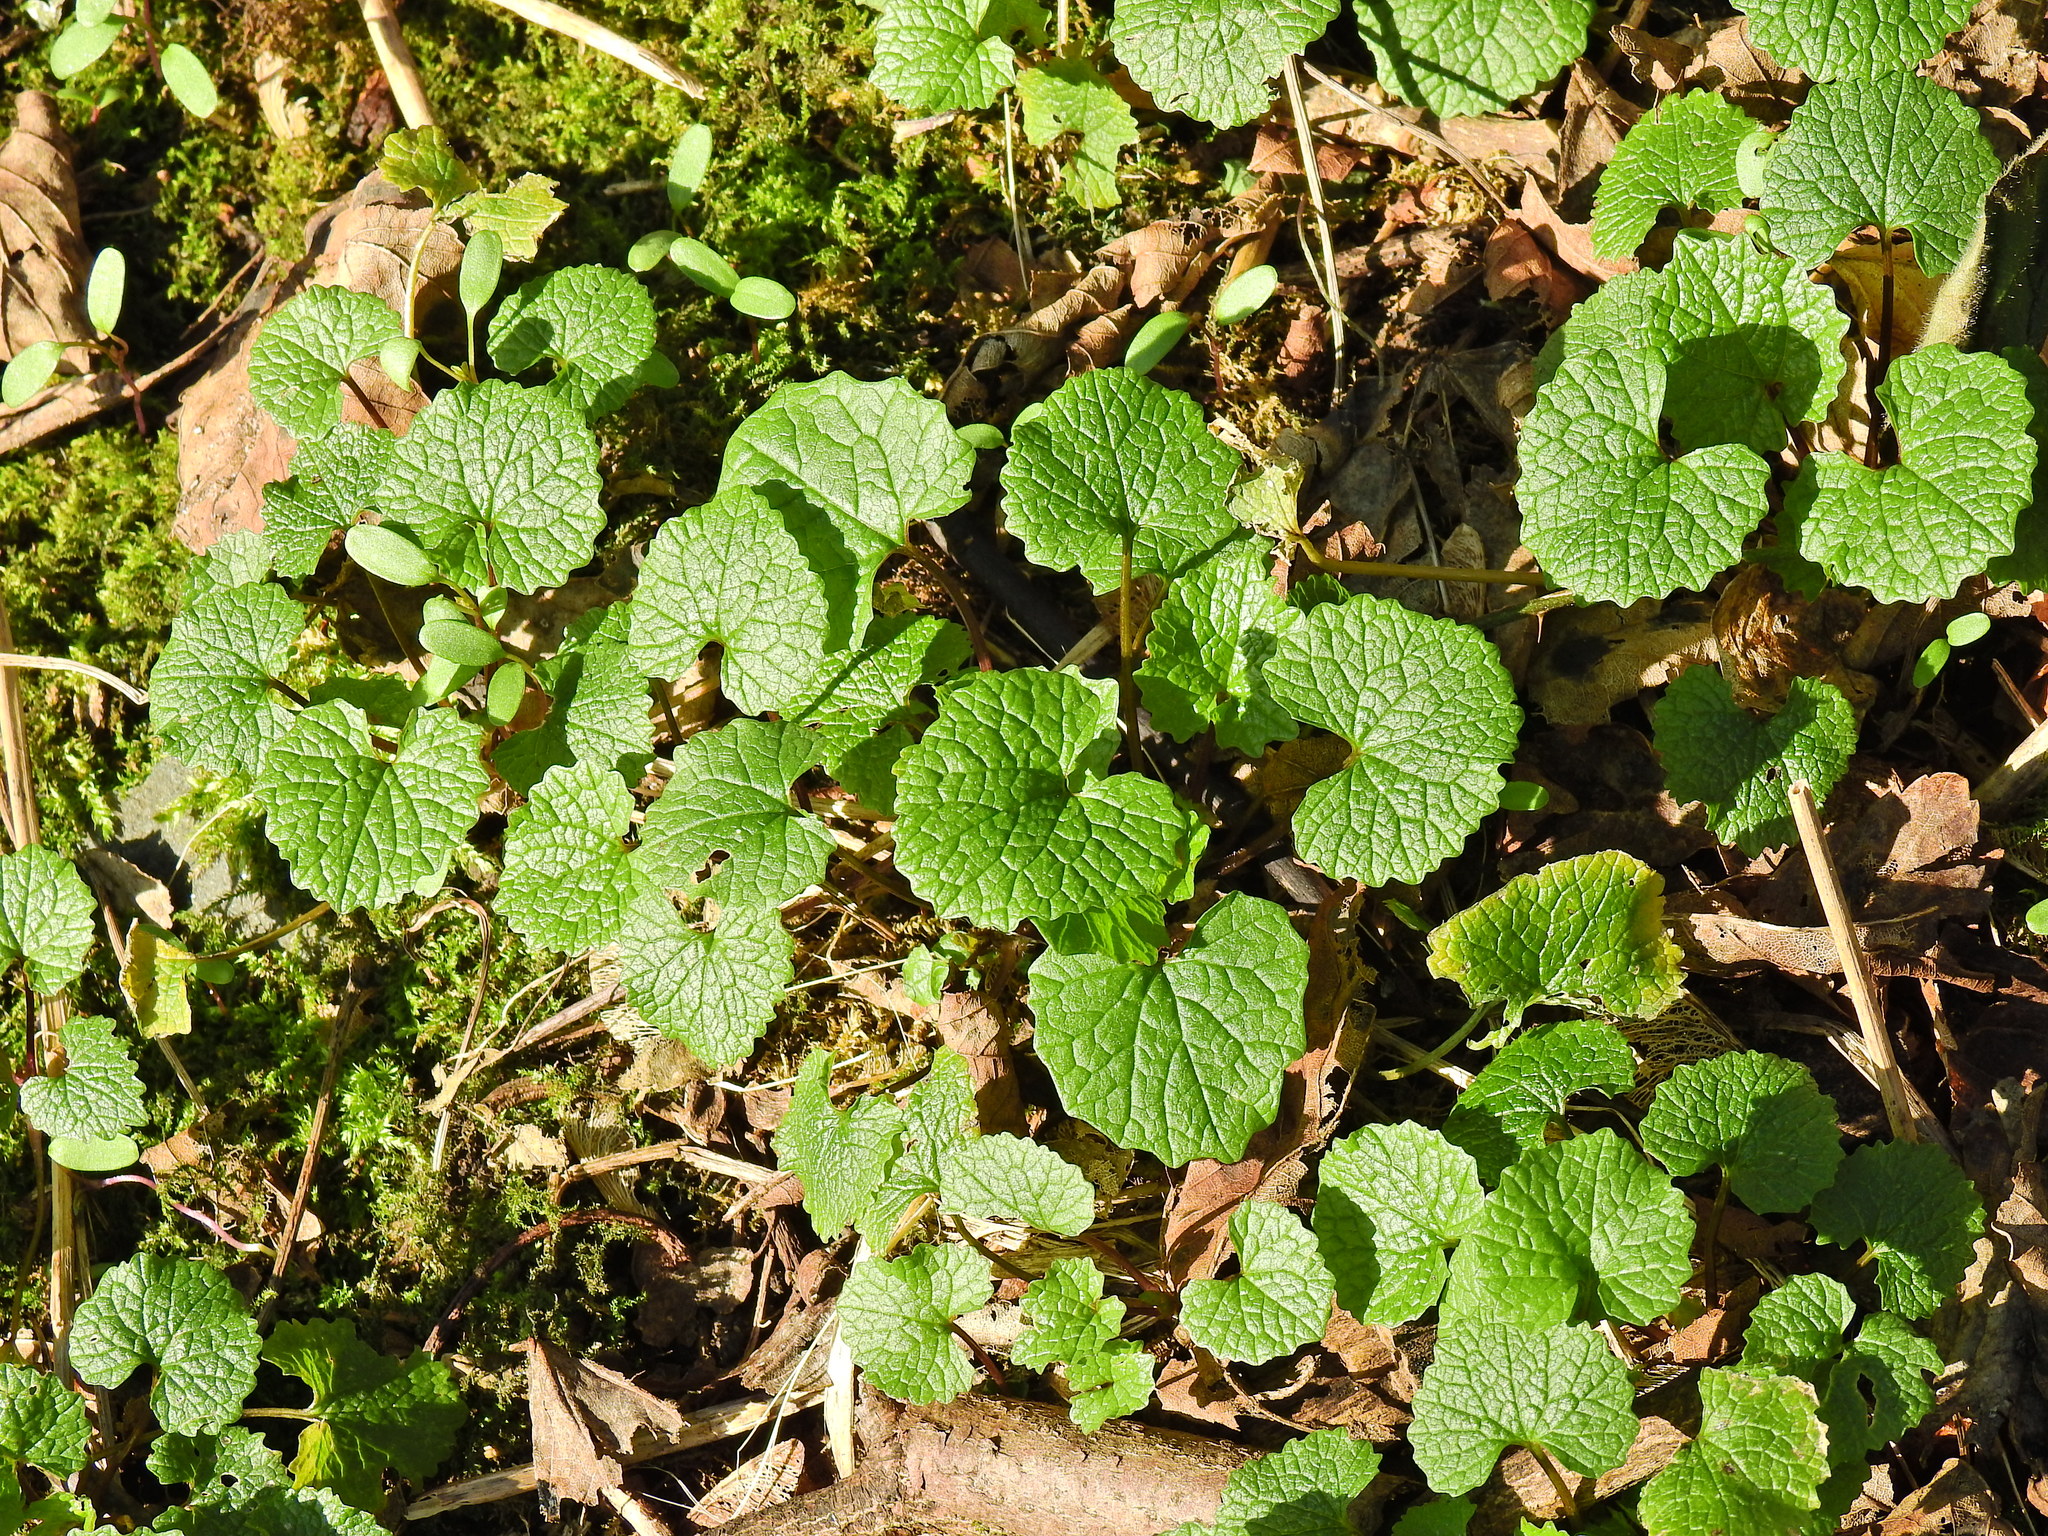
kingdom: Plantae
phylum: Tracheophyta
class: Magnoliopsida
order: Brassicales
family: Brassicaceae
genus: Alliaria
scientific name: Alliaria petiolata
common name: Garlic mustard
